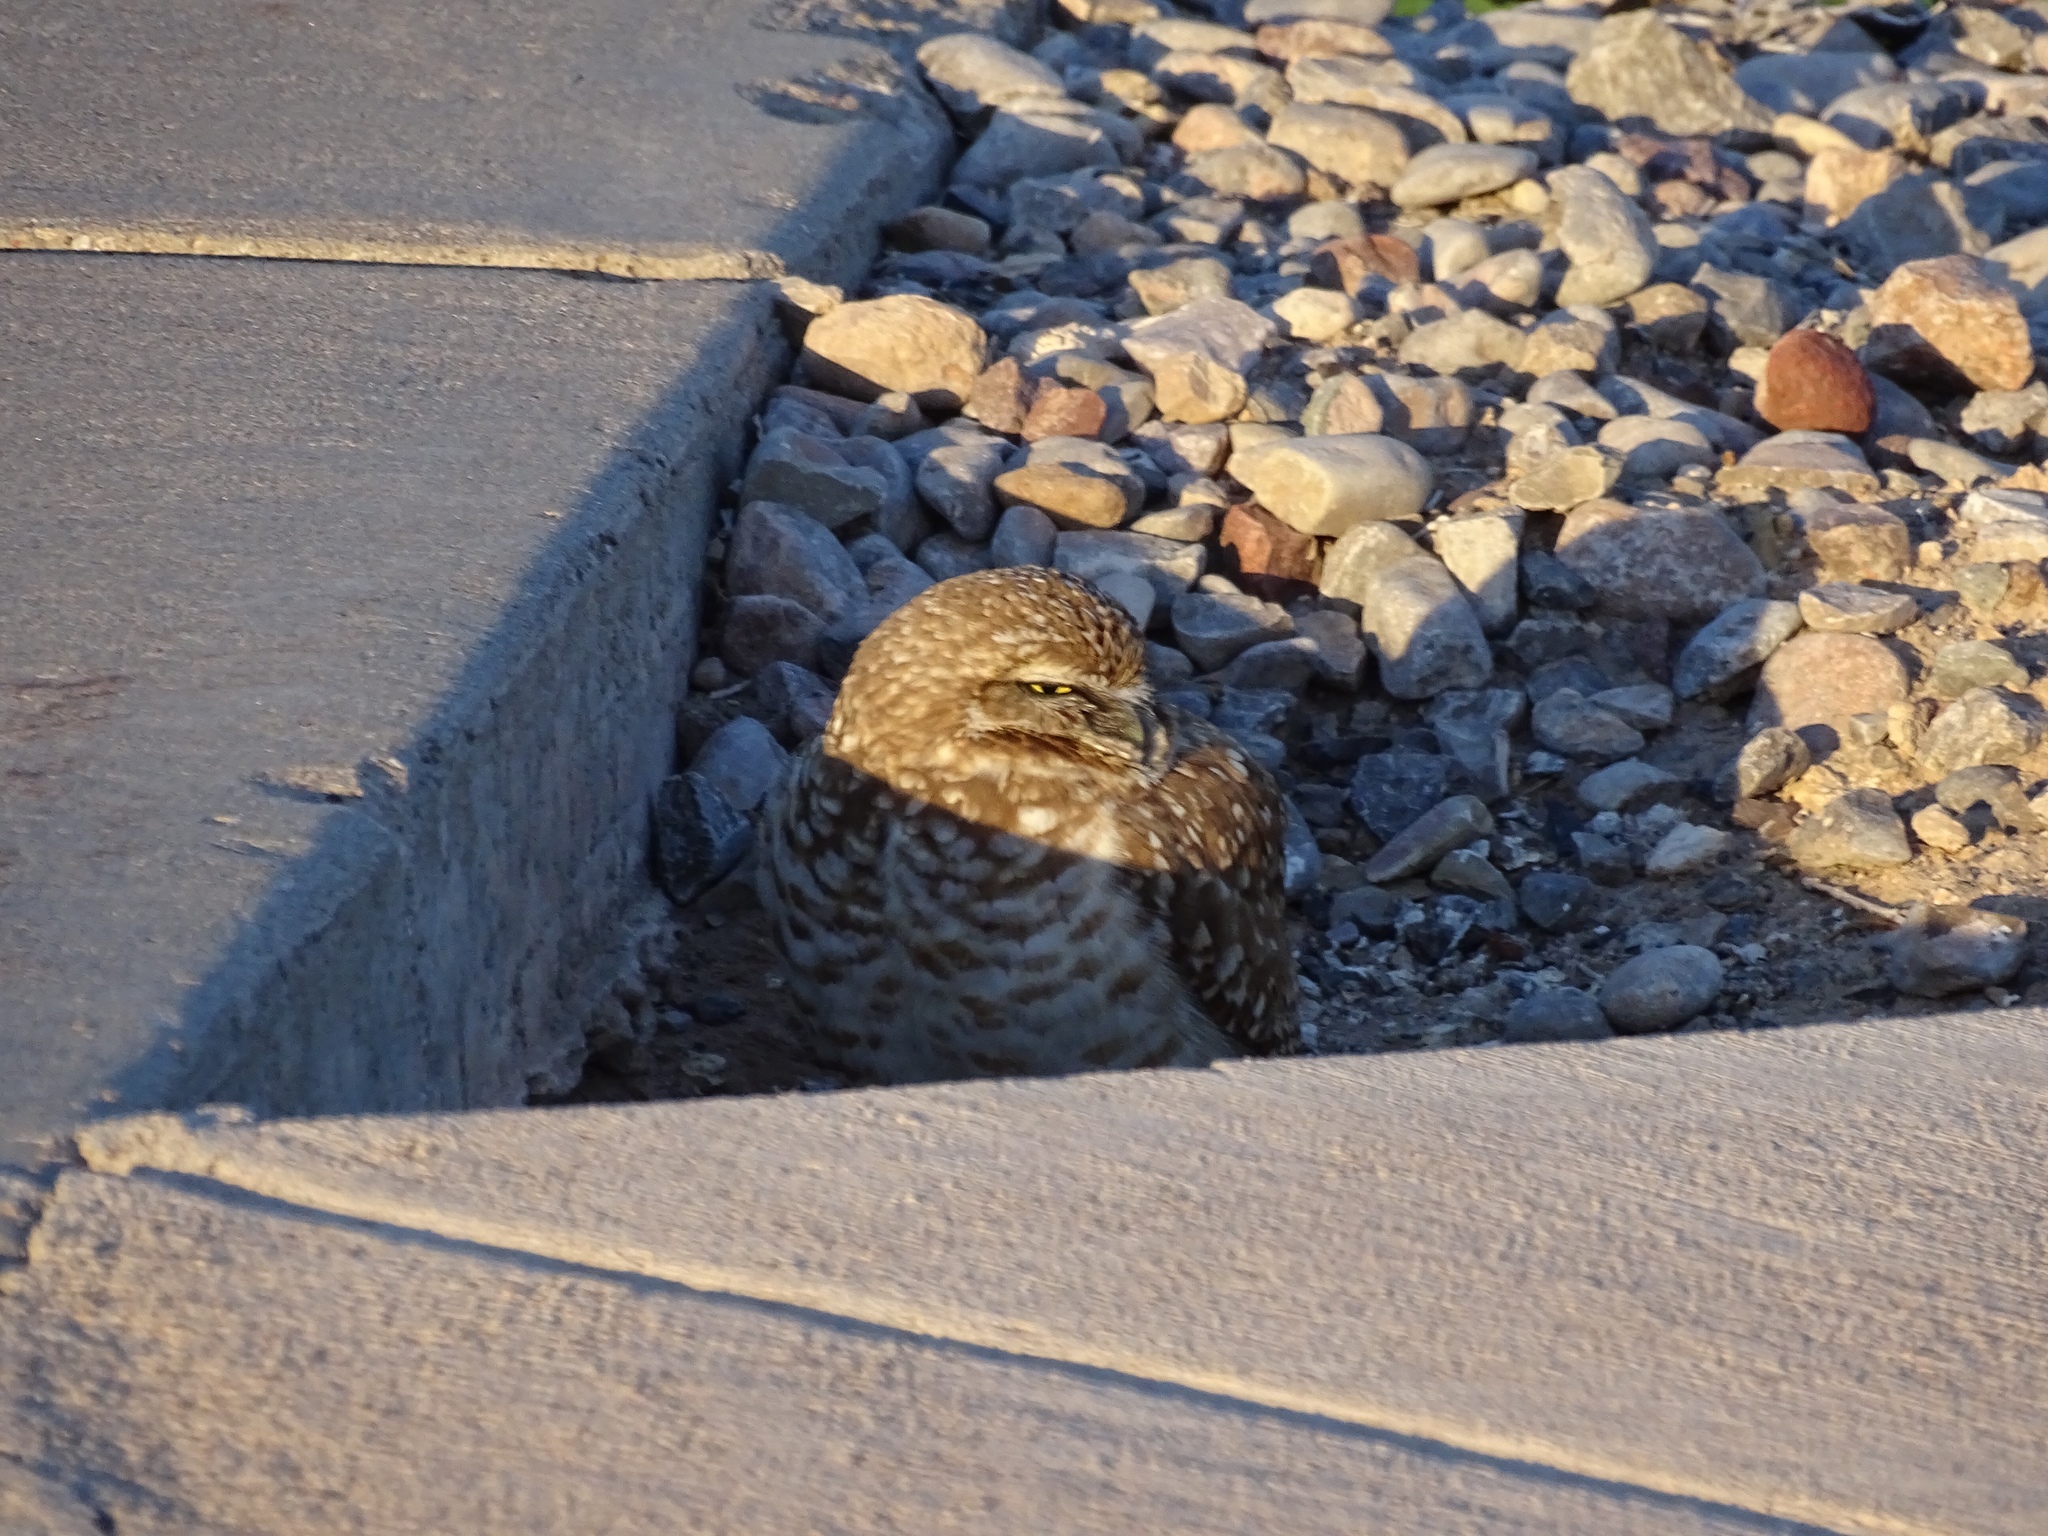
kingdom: Animalia
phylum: Chordata
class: Aves
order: Strigiformes
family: Strigidae
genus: Athene
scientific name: Athene cunicularia
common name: Burrowing owl
